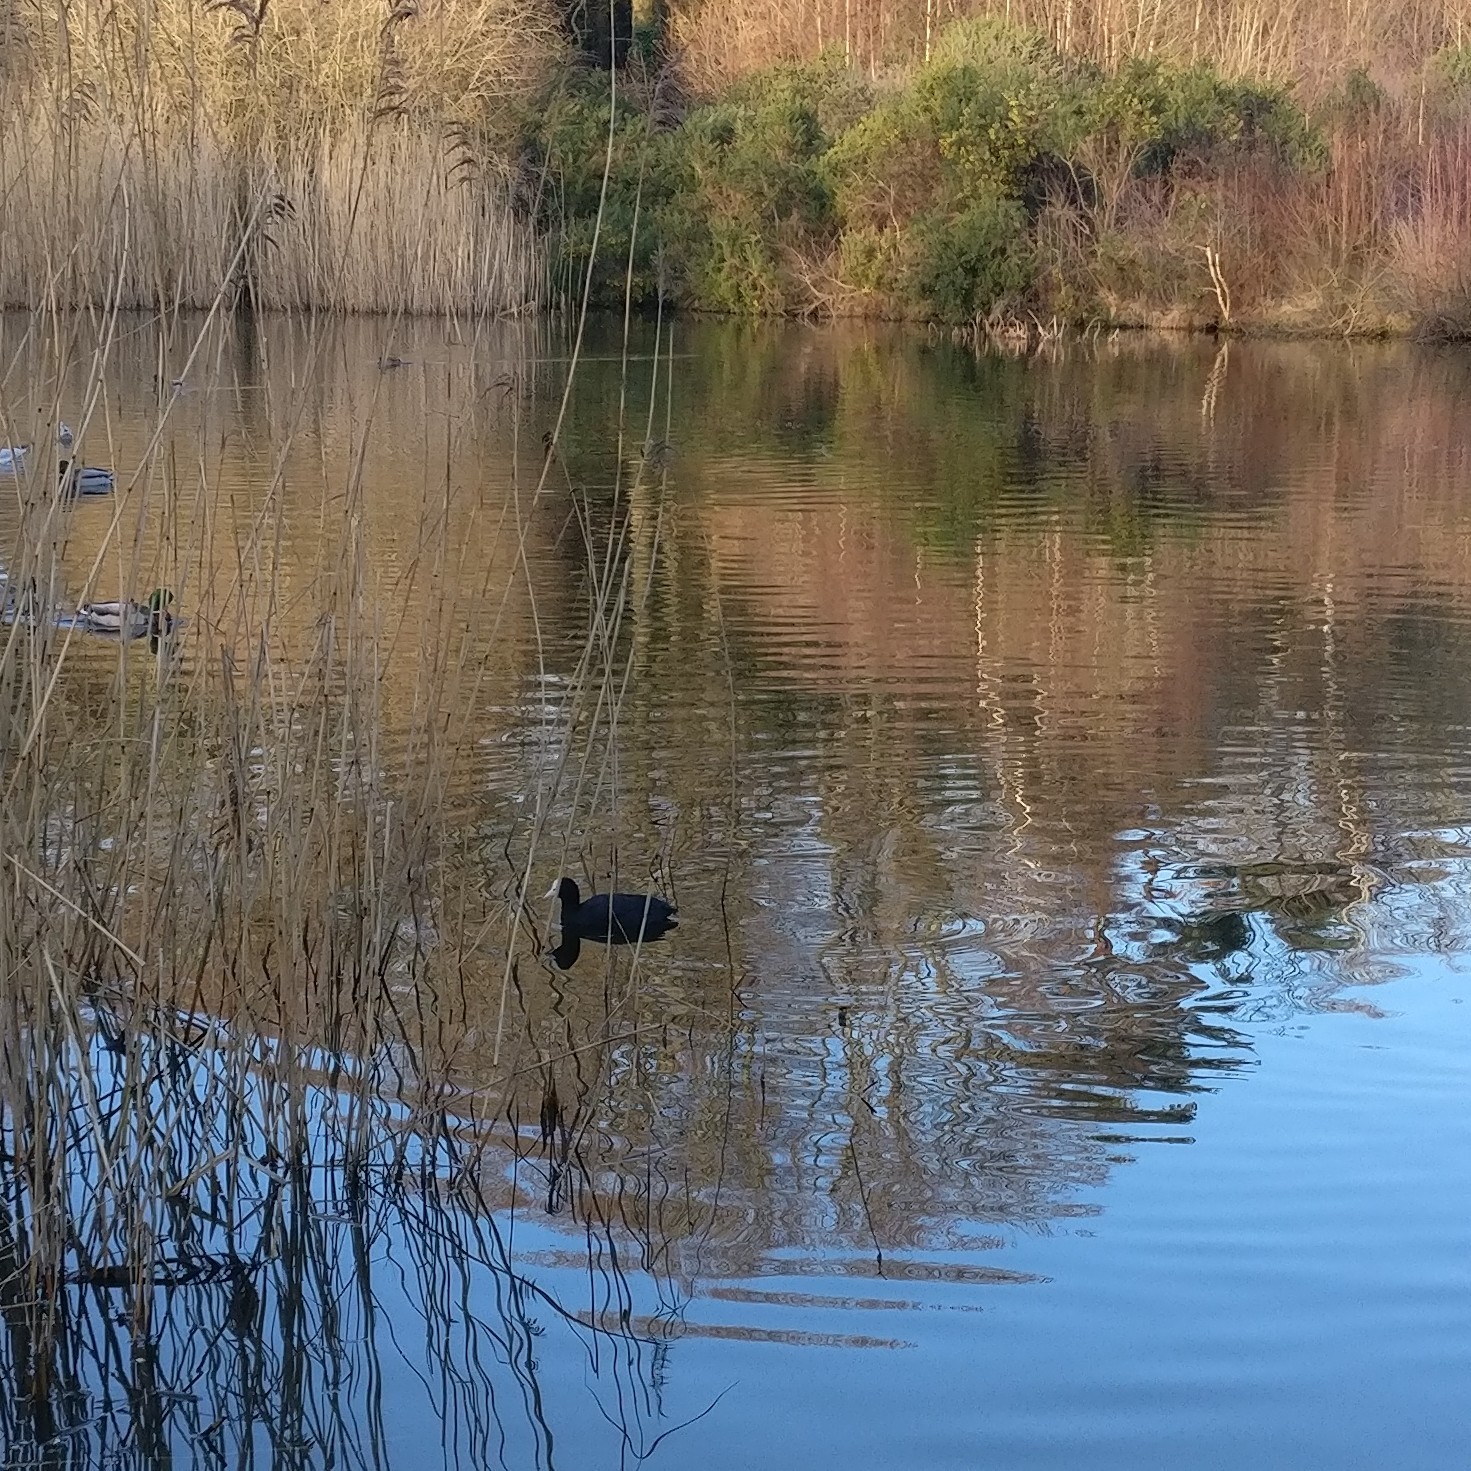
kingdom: Animalia
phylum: Chordata
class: Aves
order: Gruiformes
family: Rallidae
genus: Fulica
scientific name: Fulica atra
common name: Eurasian coot
